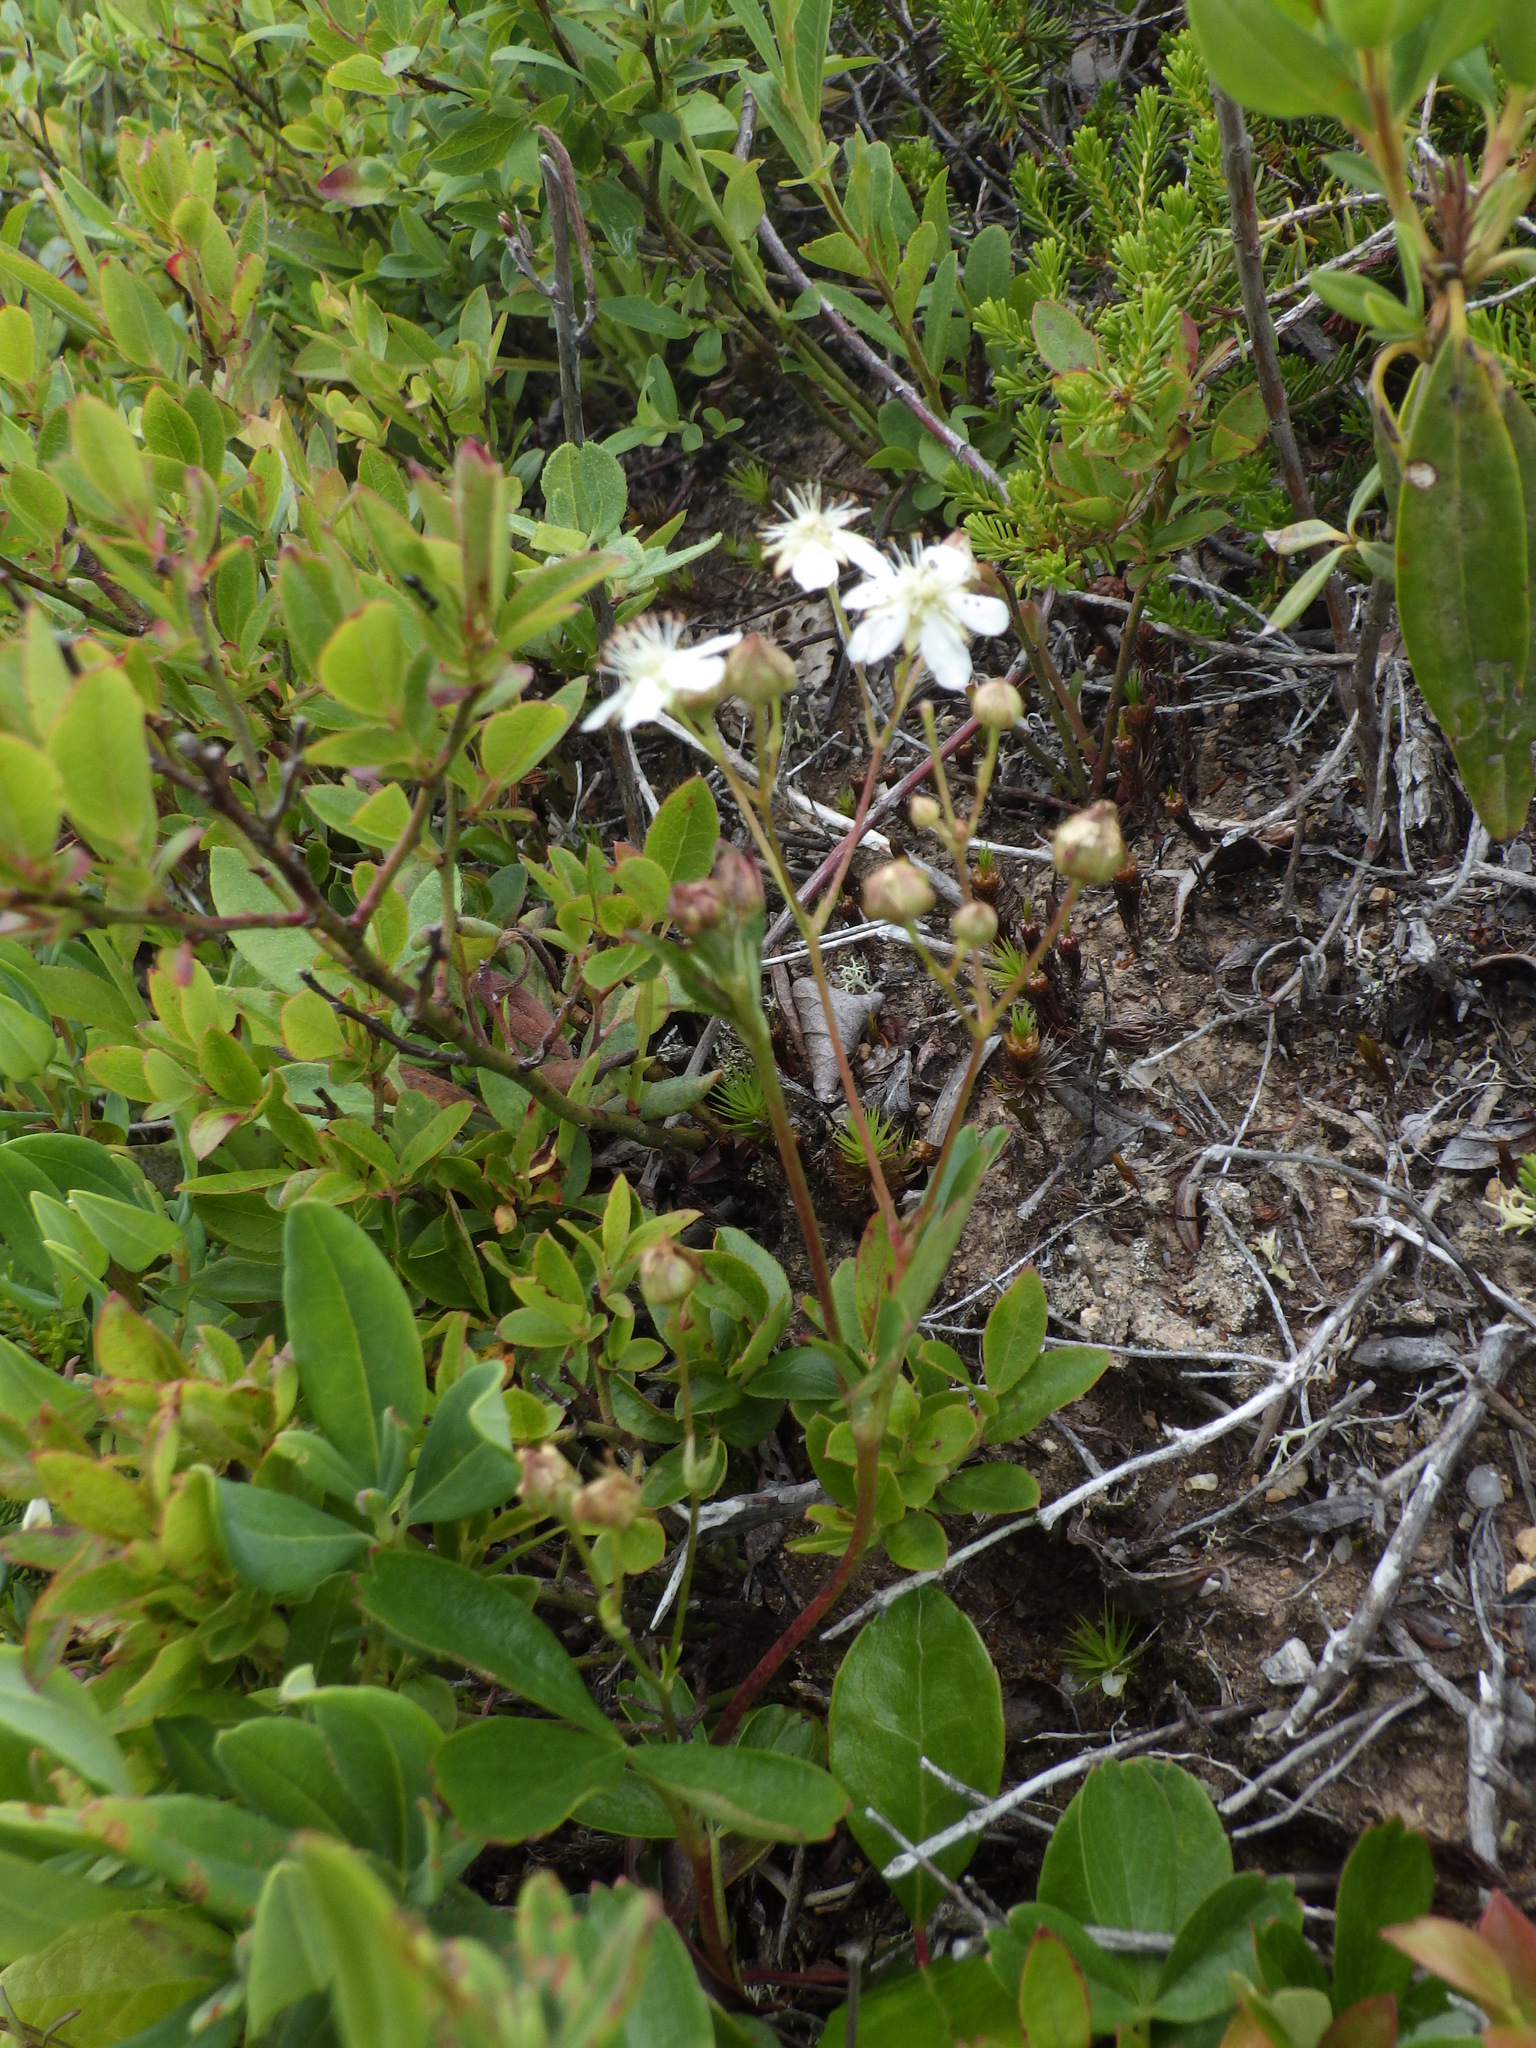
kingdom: Plantae
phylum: Tracheophyta
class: Magnoliopsida
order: Rosales
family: Rosaceae
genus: Sibbaldia
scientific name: Sibbaldia tridentata
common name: Three-toothed cinquefoil
